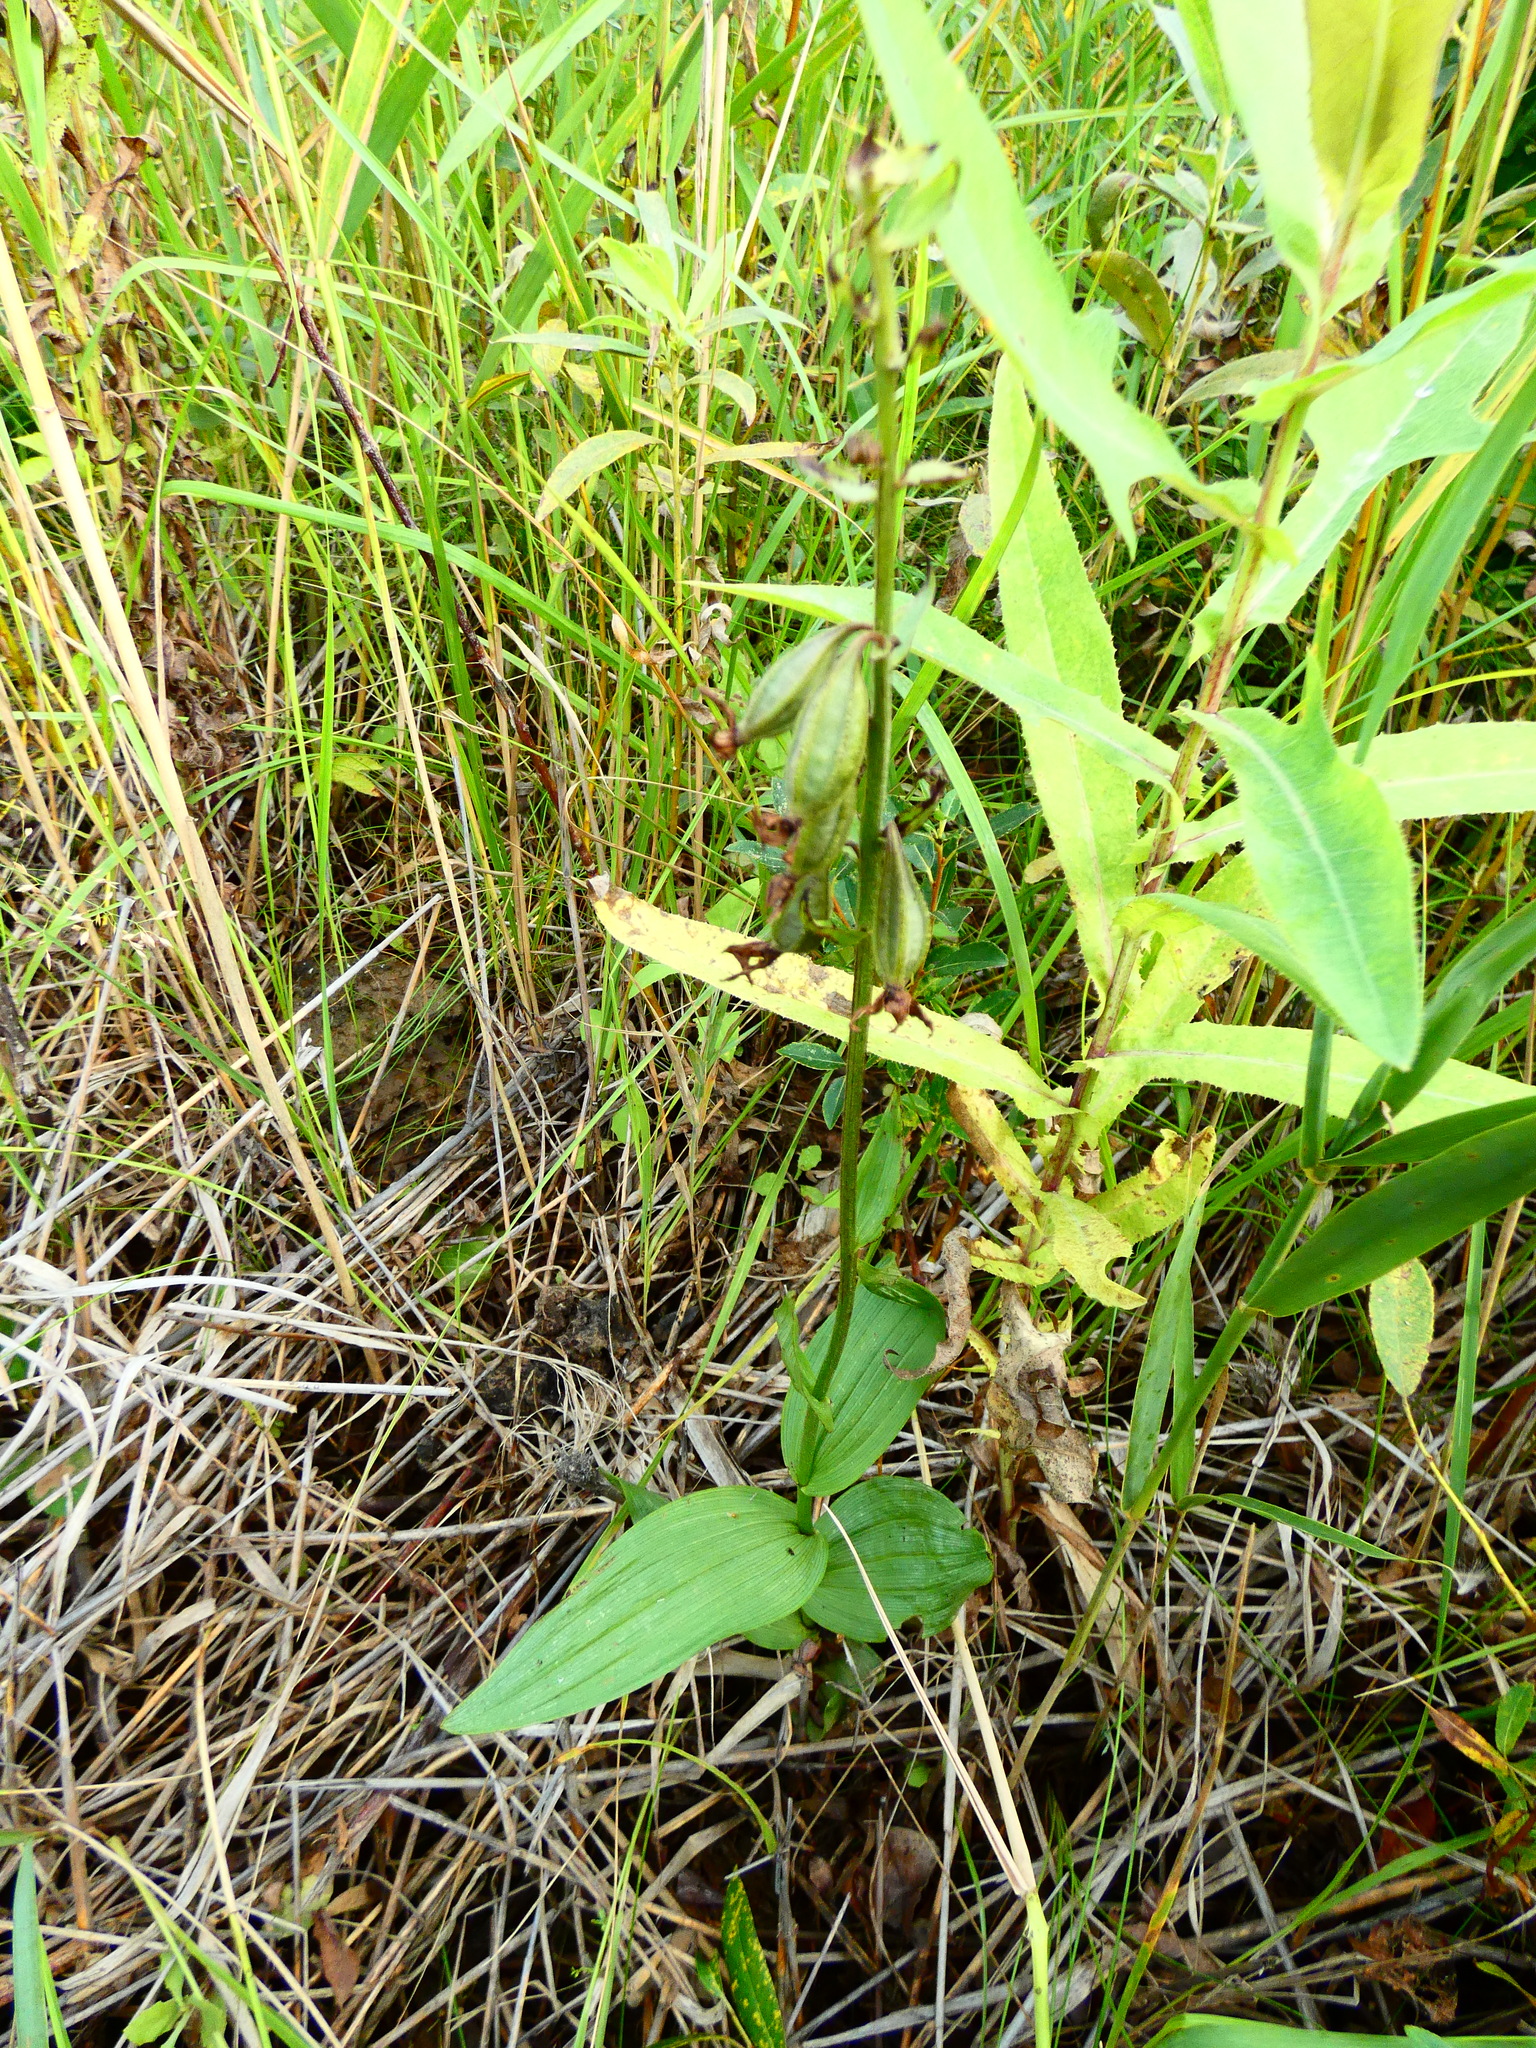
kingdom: Plantae
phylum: Tracheophyta
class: Liliopsida
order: Asparagales
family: Orchidaceae
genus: Epipactis
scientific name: Epipactis palustris
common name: Marsh helleborine
